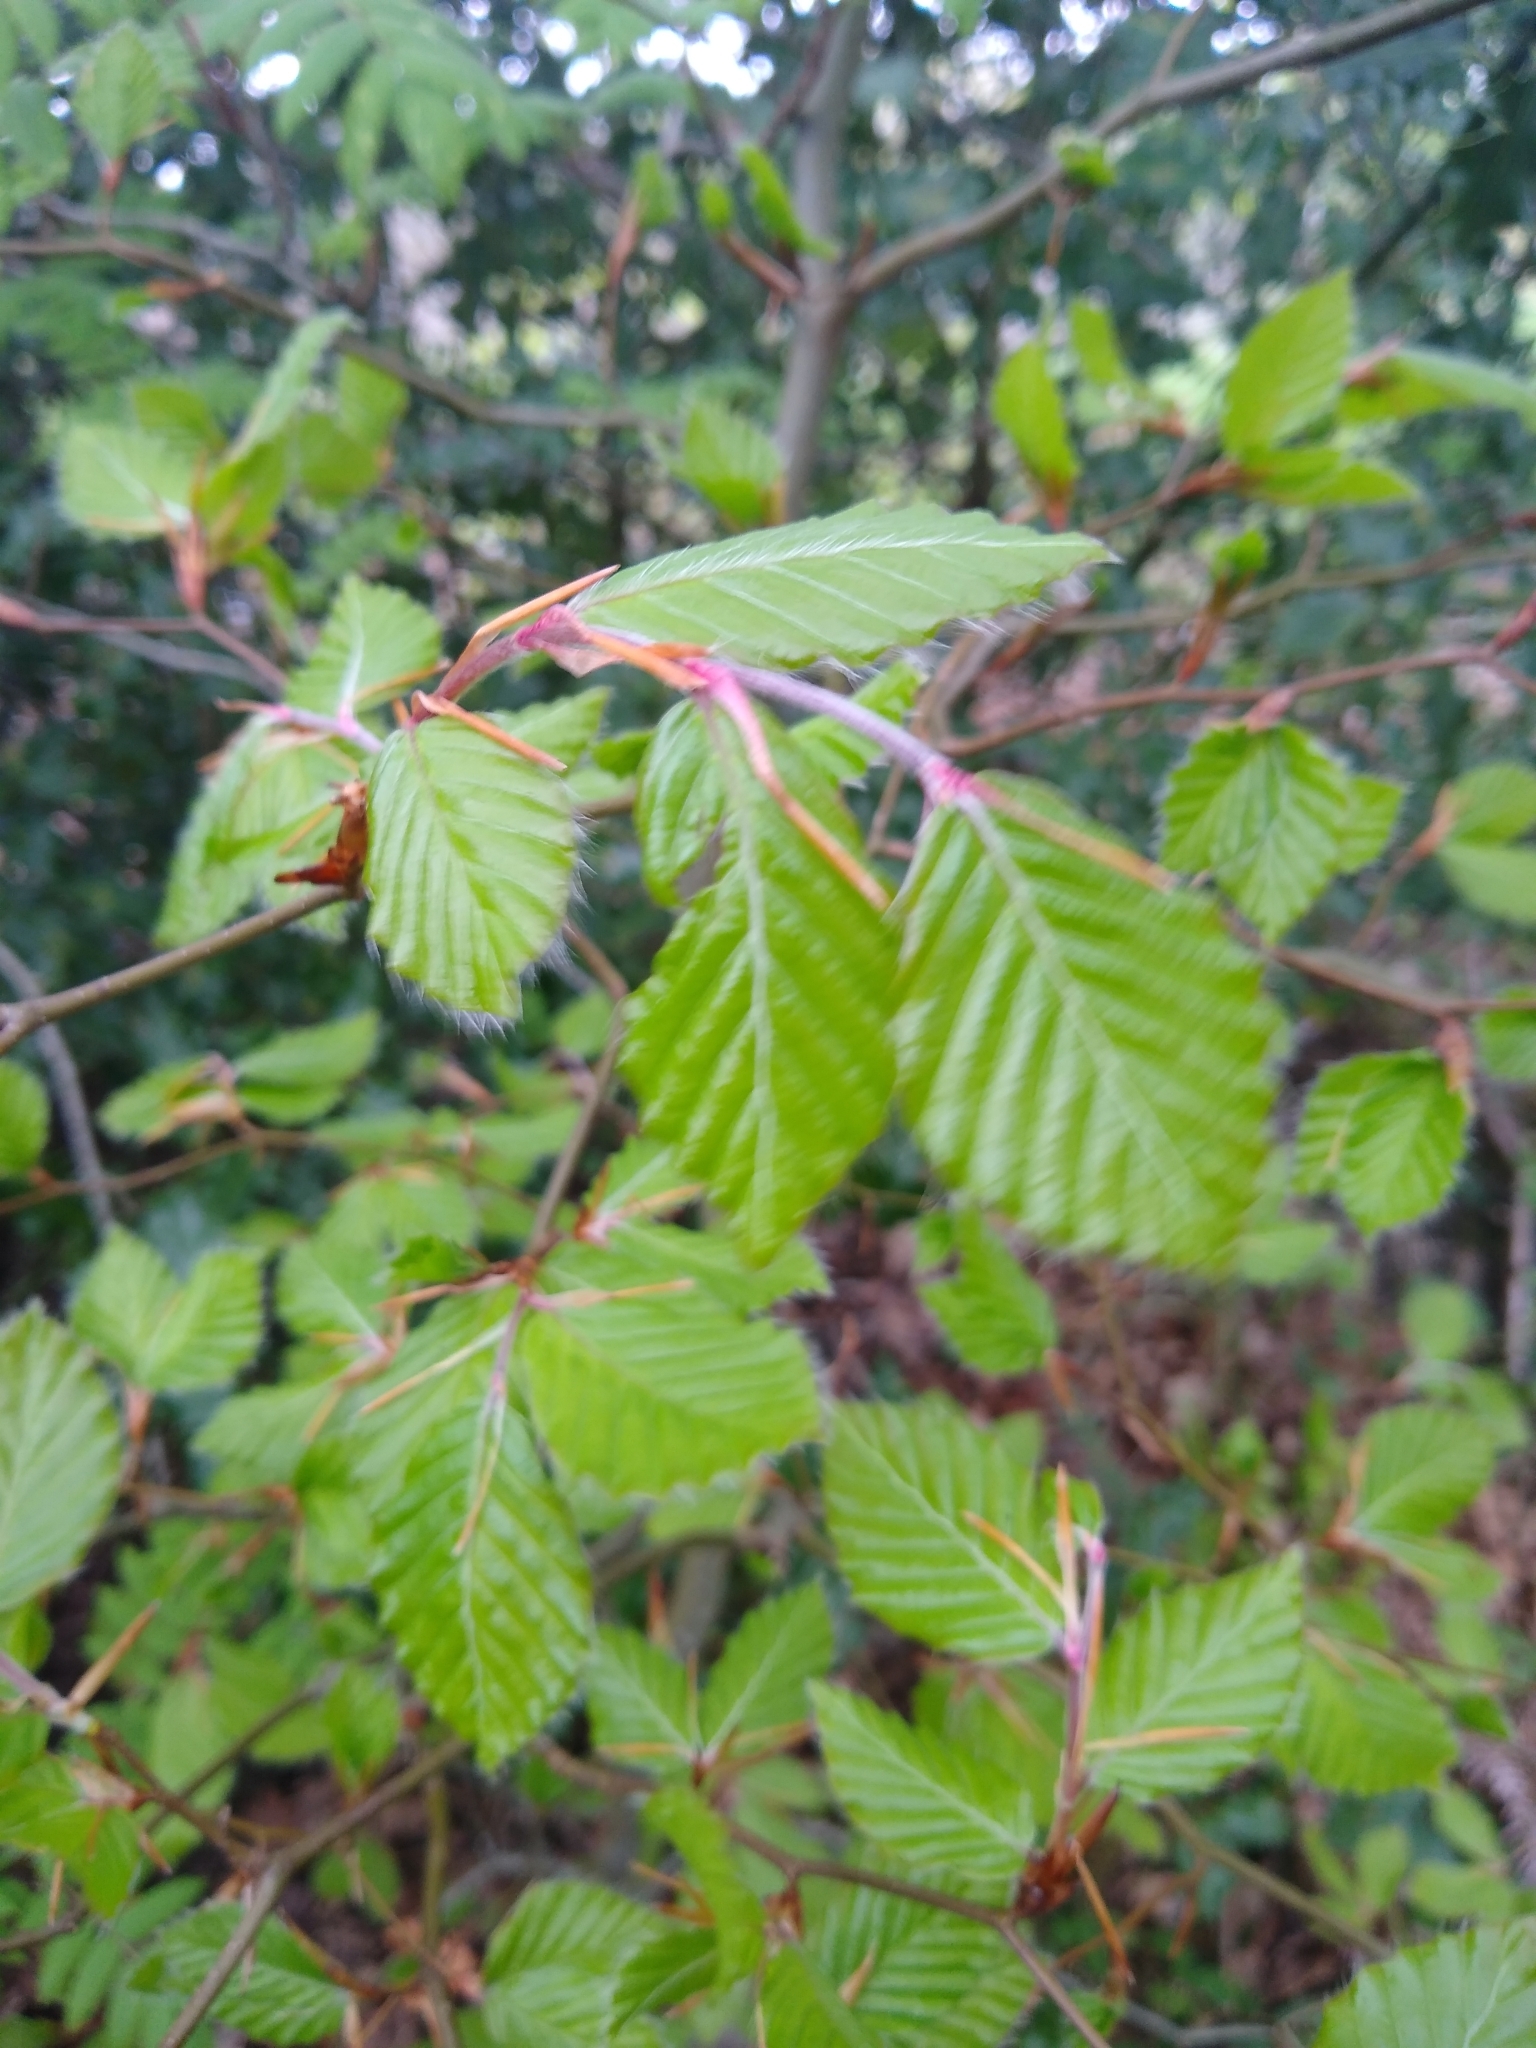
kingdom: Plantae
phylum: Tracheophyta
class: Magnoliopsida
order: Fagales
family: Fagaceae
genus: Fagus
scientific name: Fagus sylvatica
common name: Beech
